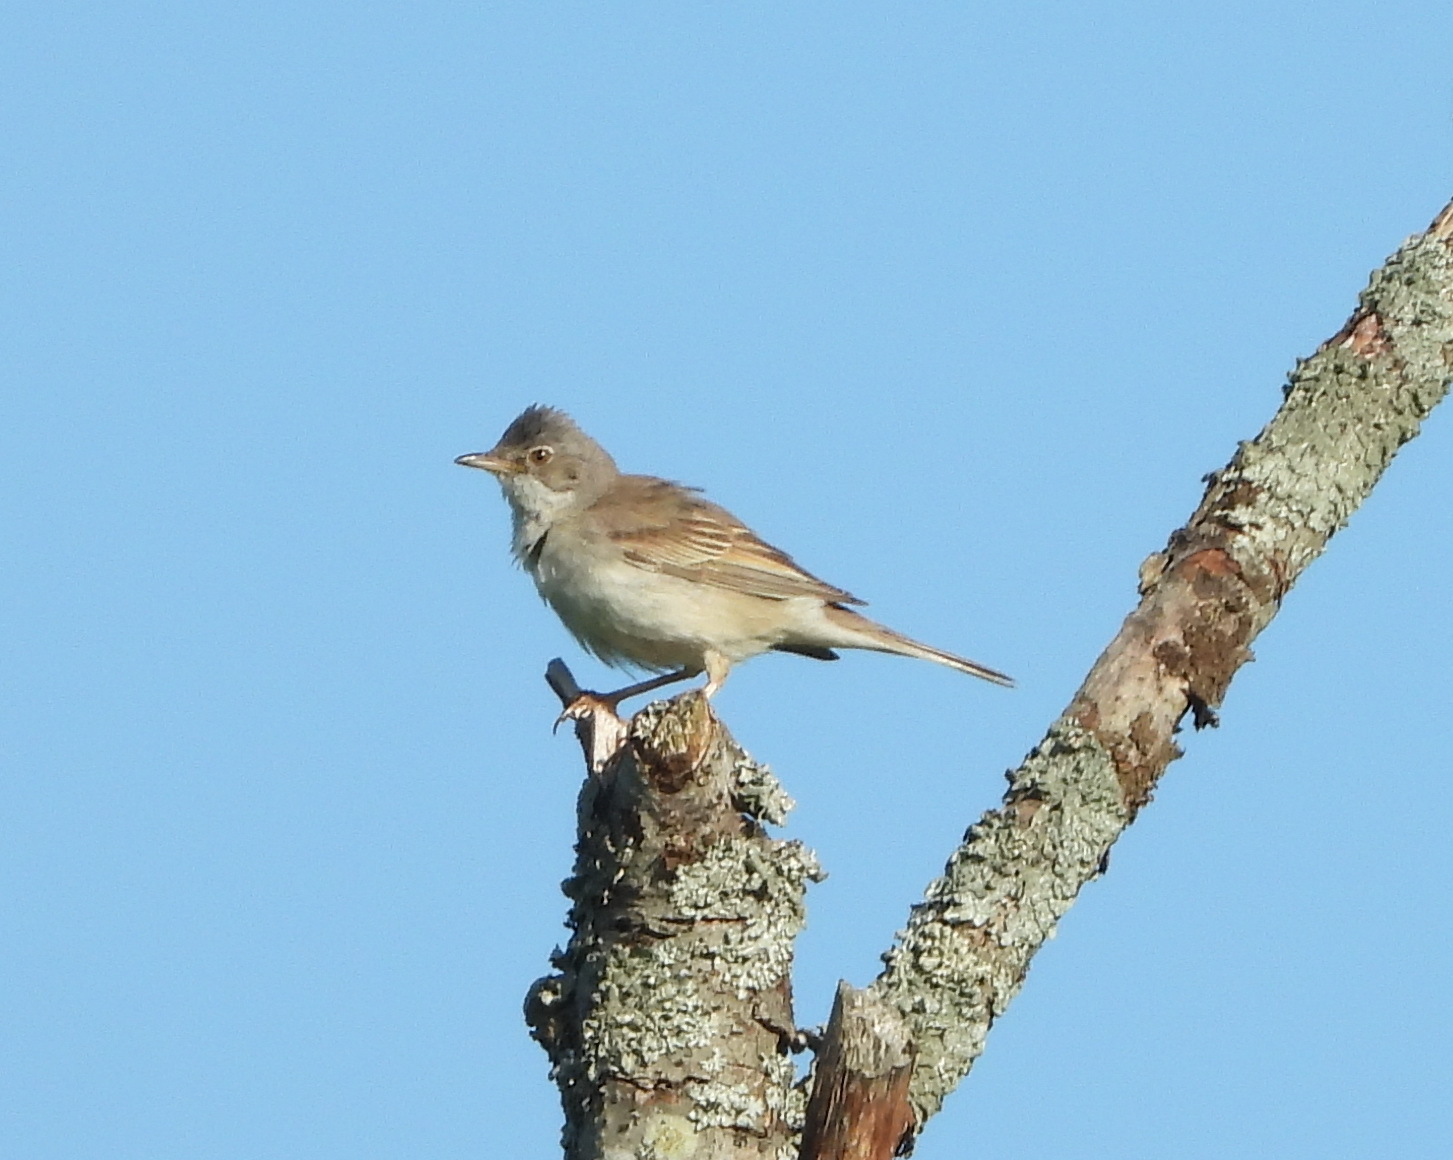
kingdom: Animalia
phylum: Chordata
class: Aves
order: Passeriformes
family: Sylviidae
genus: Sylvia
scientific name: Sylvia communis
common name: Common whitethroat
